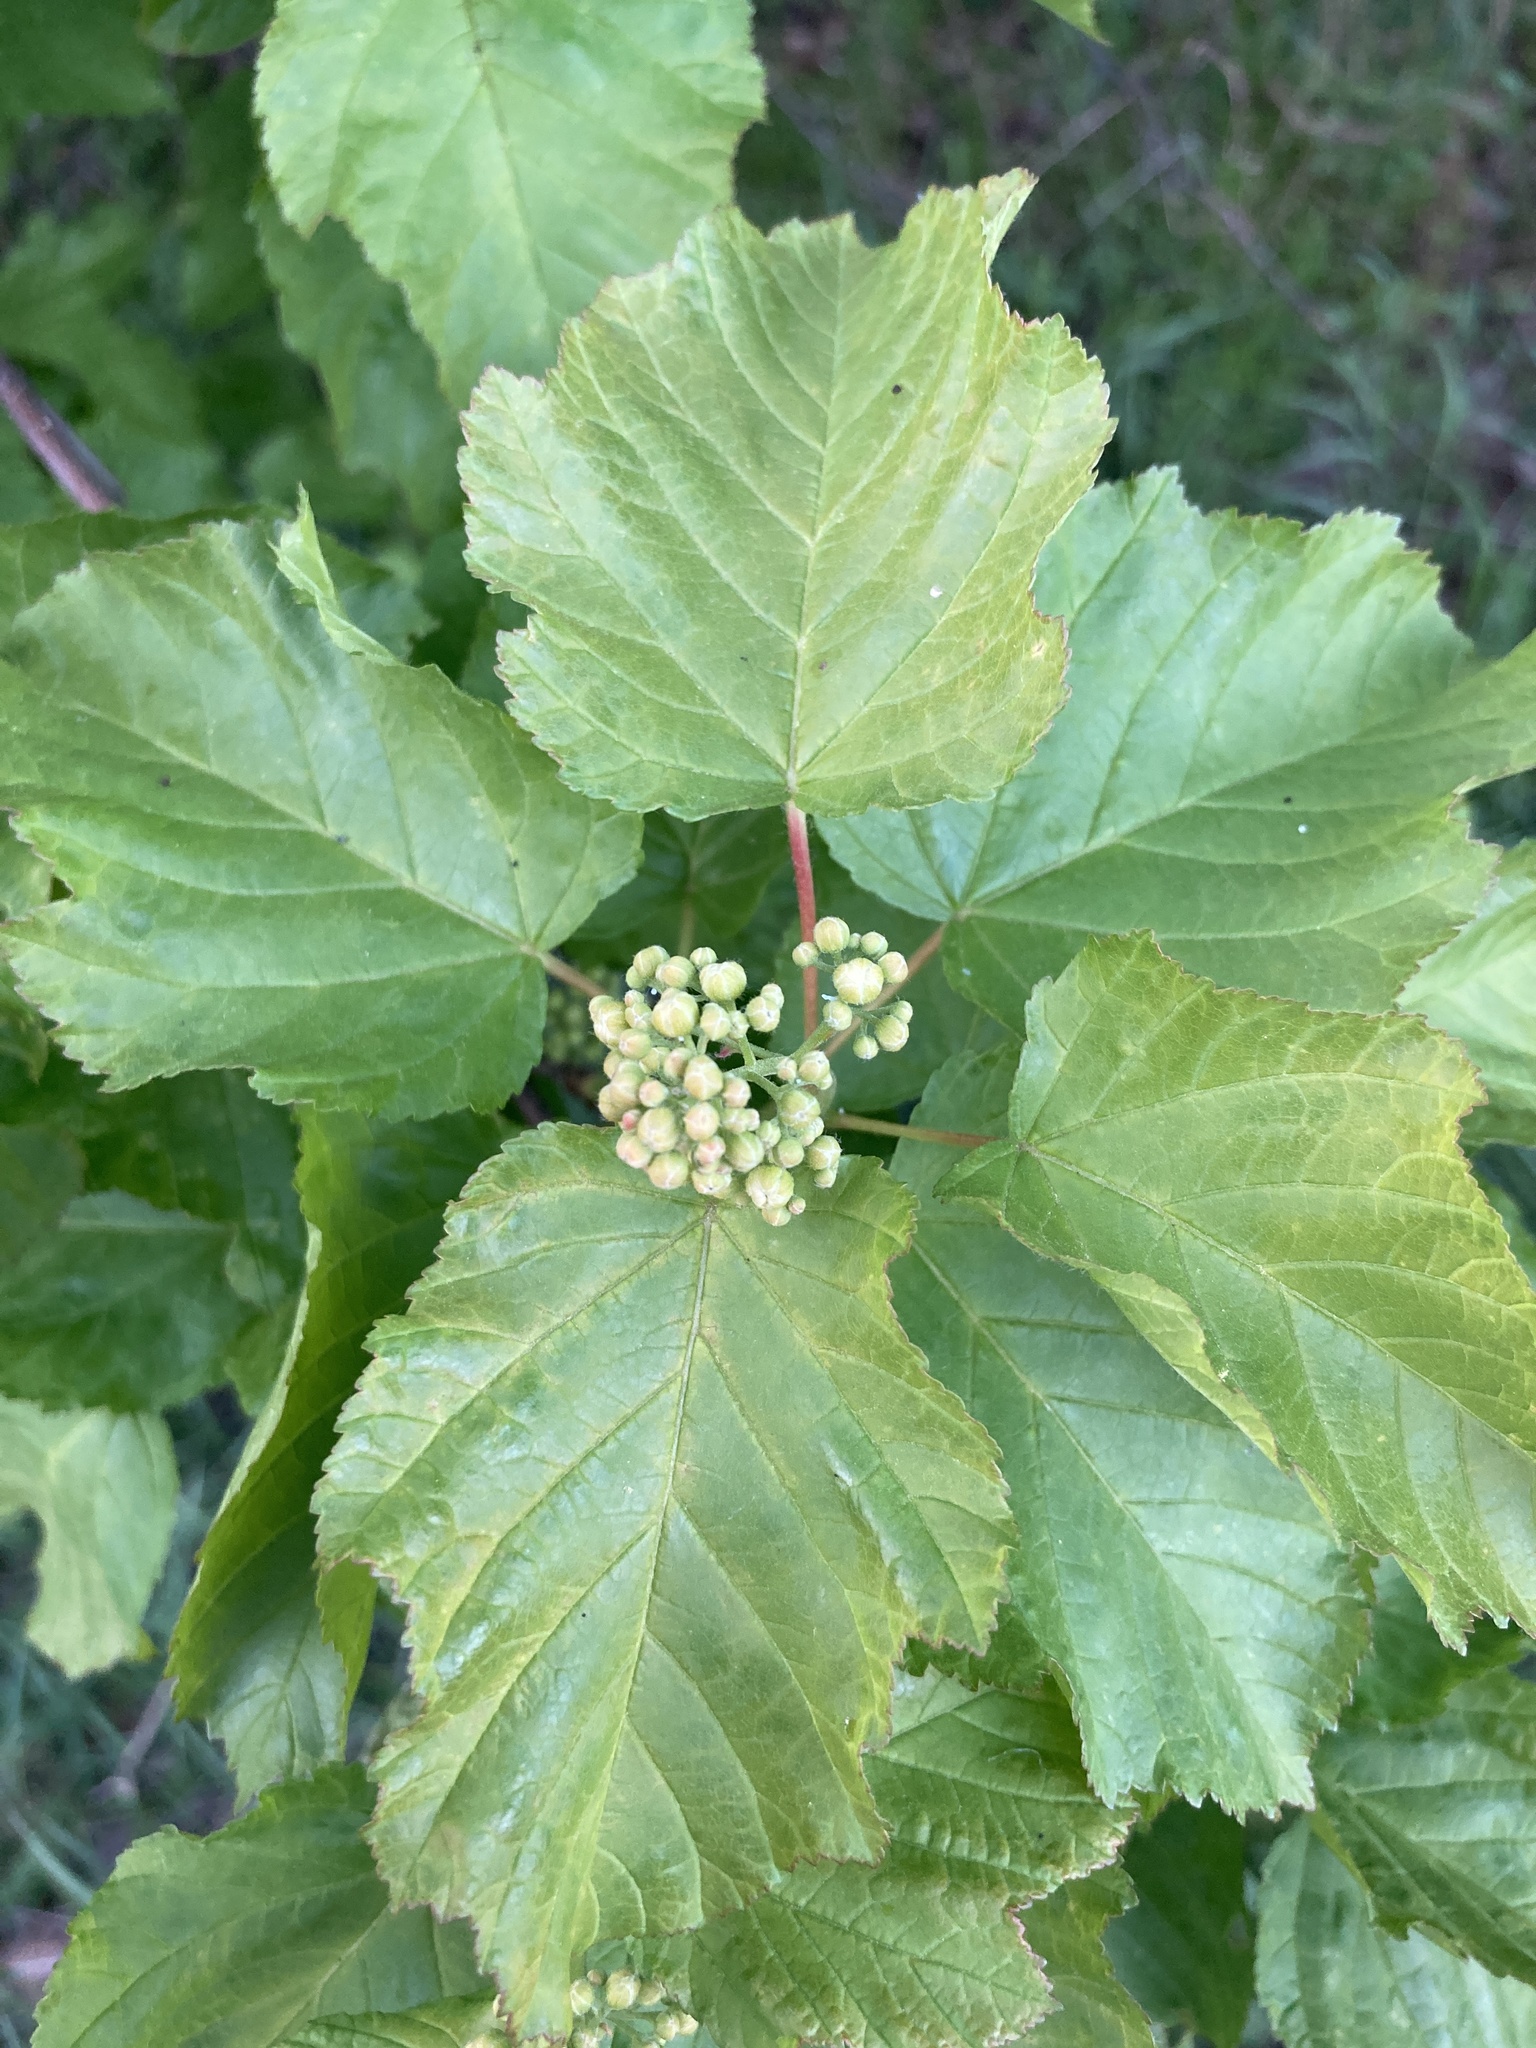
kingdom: Plantae
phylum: Tracheophyta
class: Magnoliopsida
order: Sapindales
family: Sapindaceae
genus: Acer
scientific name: Acer tataricum
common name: Tartar maple
